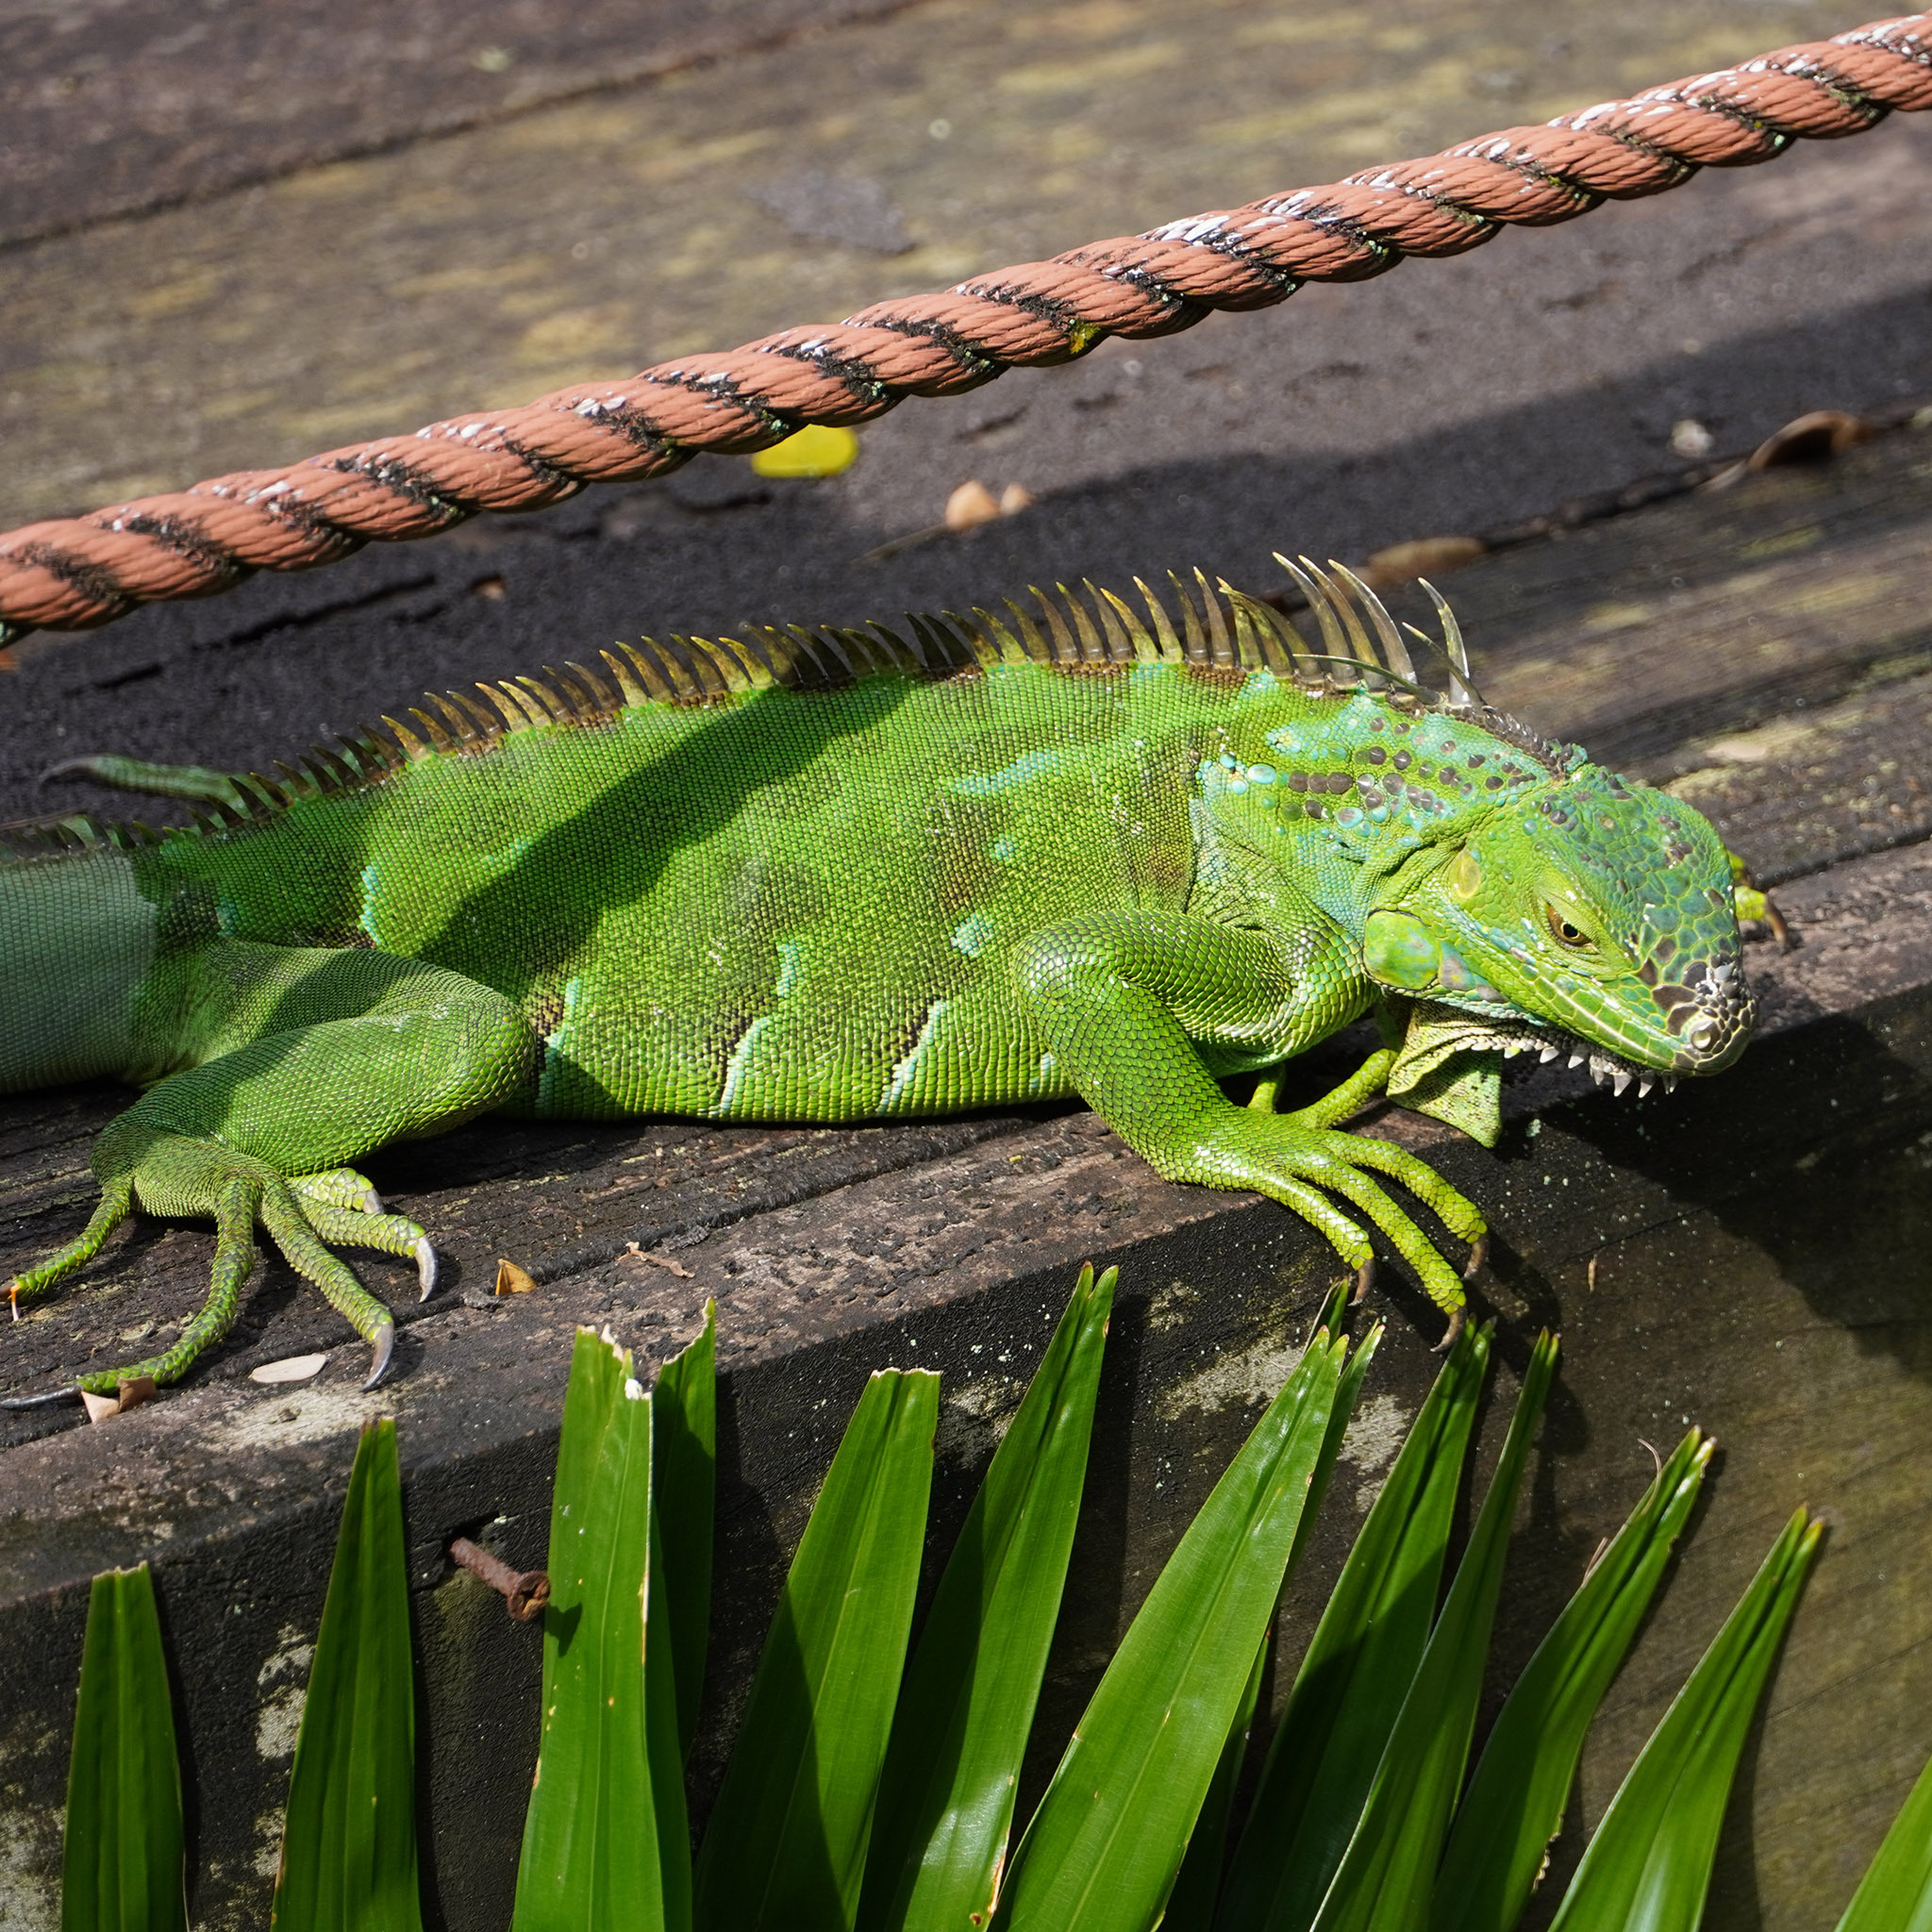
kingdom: Animalia
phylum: Chordata
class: Squamata
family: Iguanidae
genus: Iguana
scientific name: Iguana iguana
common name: Green iguana
